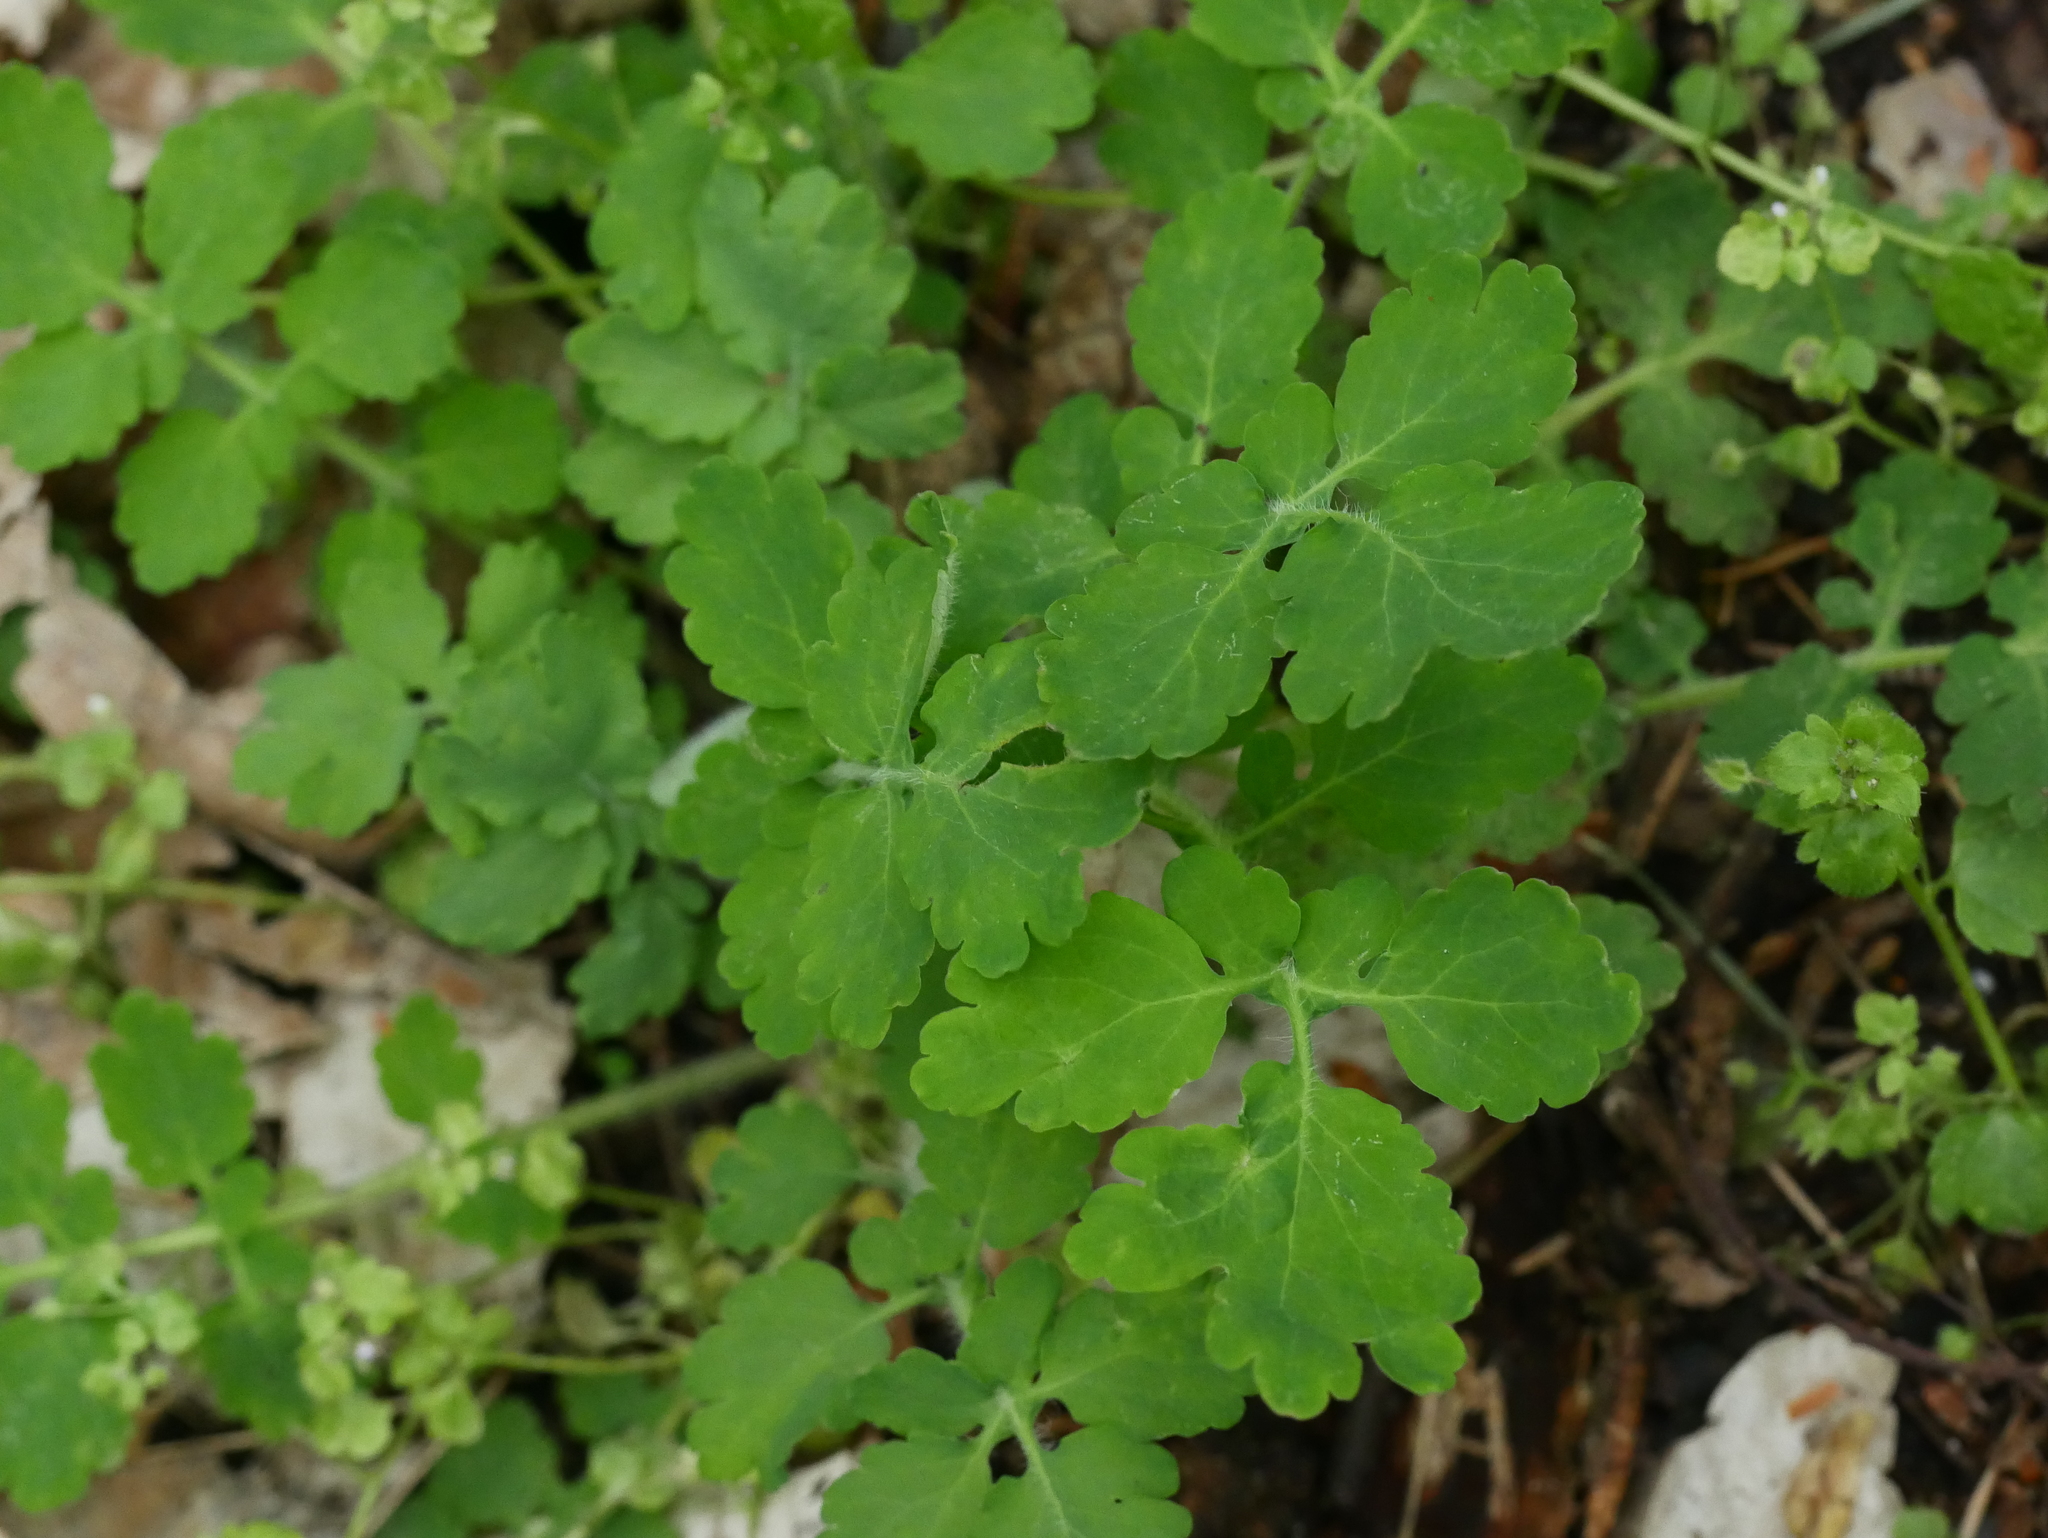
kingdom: Plantae
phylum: Tracheophyta
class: Magnoliopsida
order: Ranunculales
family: Papaveraceae
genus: Chelidonium
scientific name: Chelidonium majus
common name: Greater celandine
